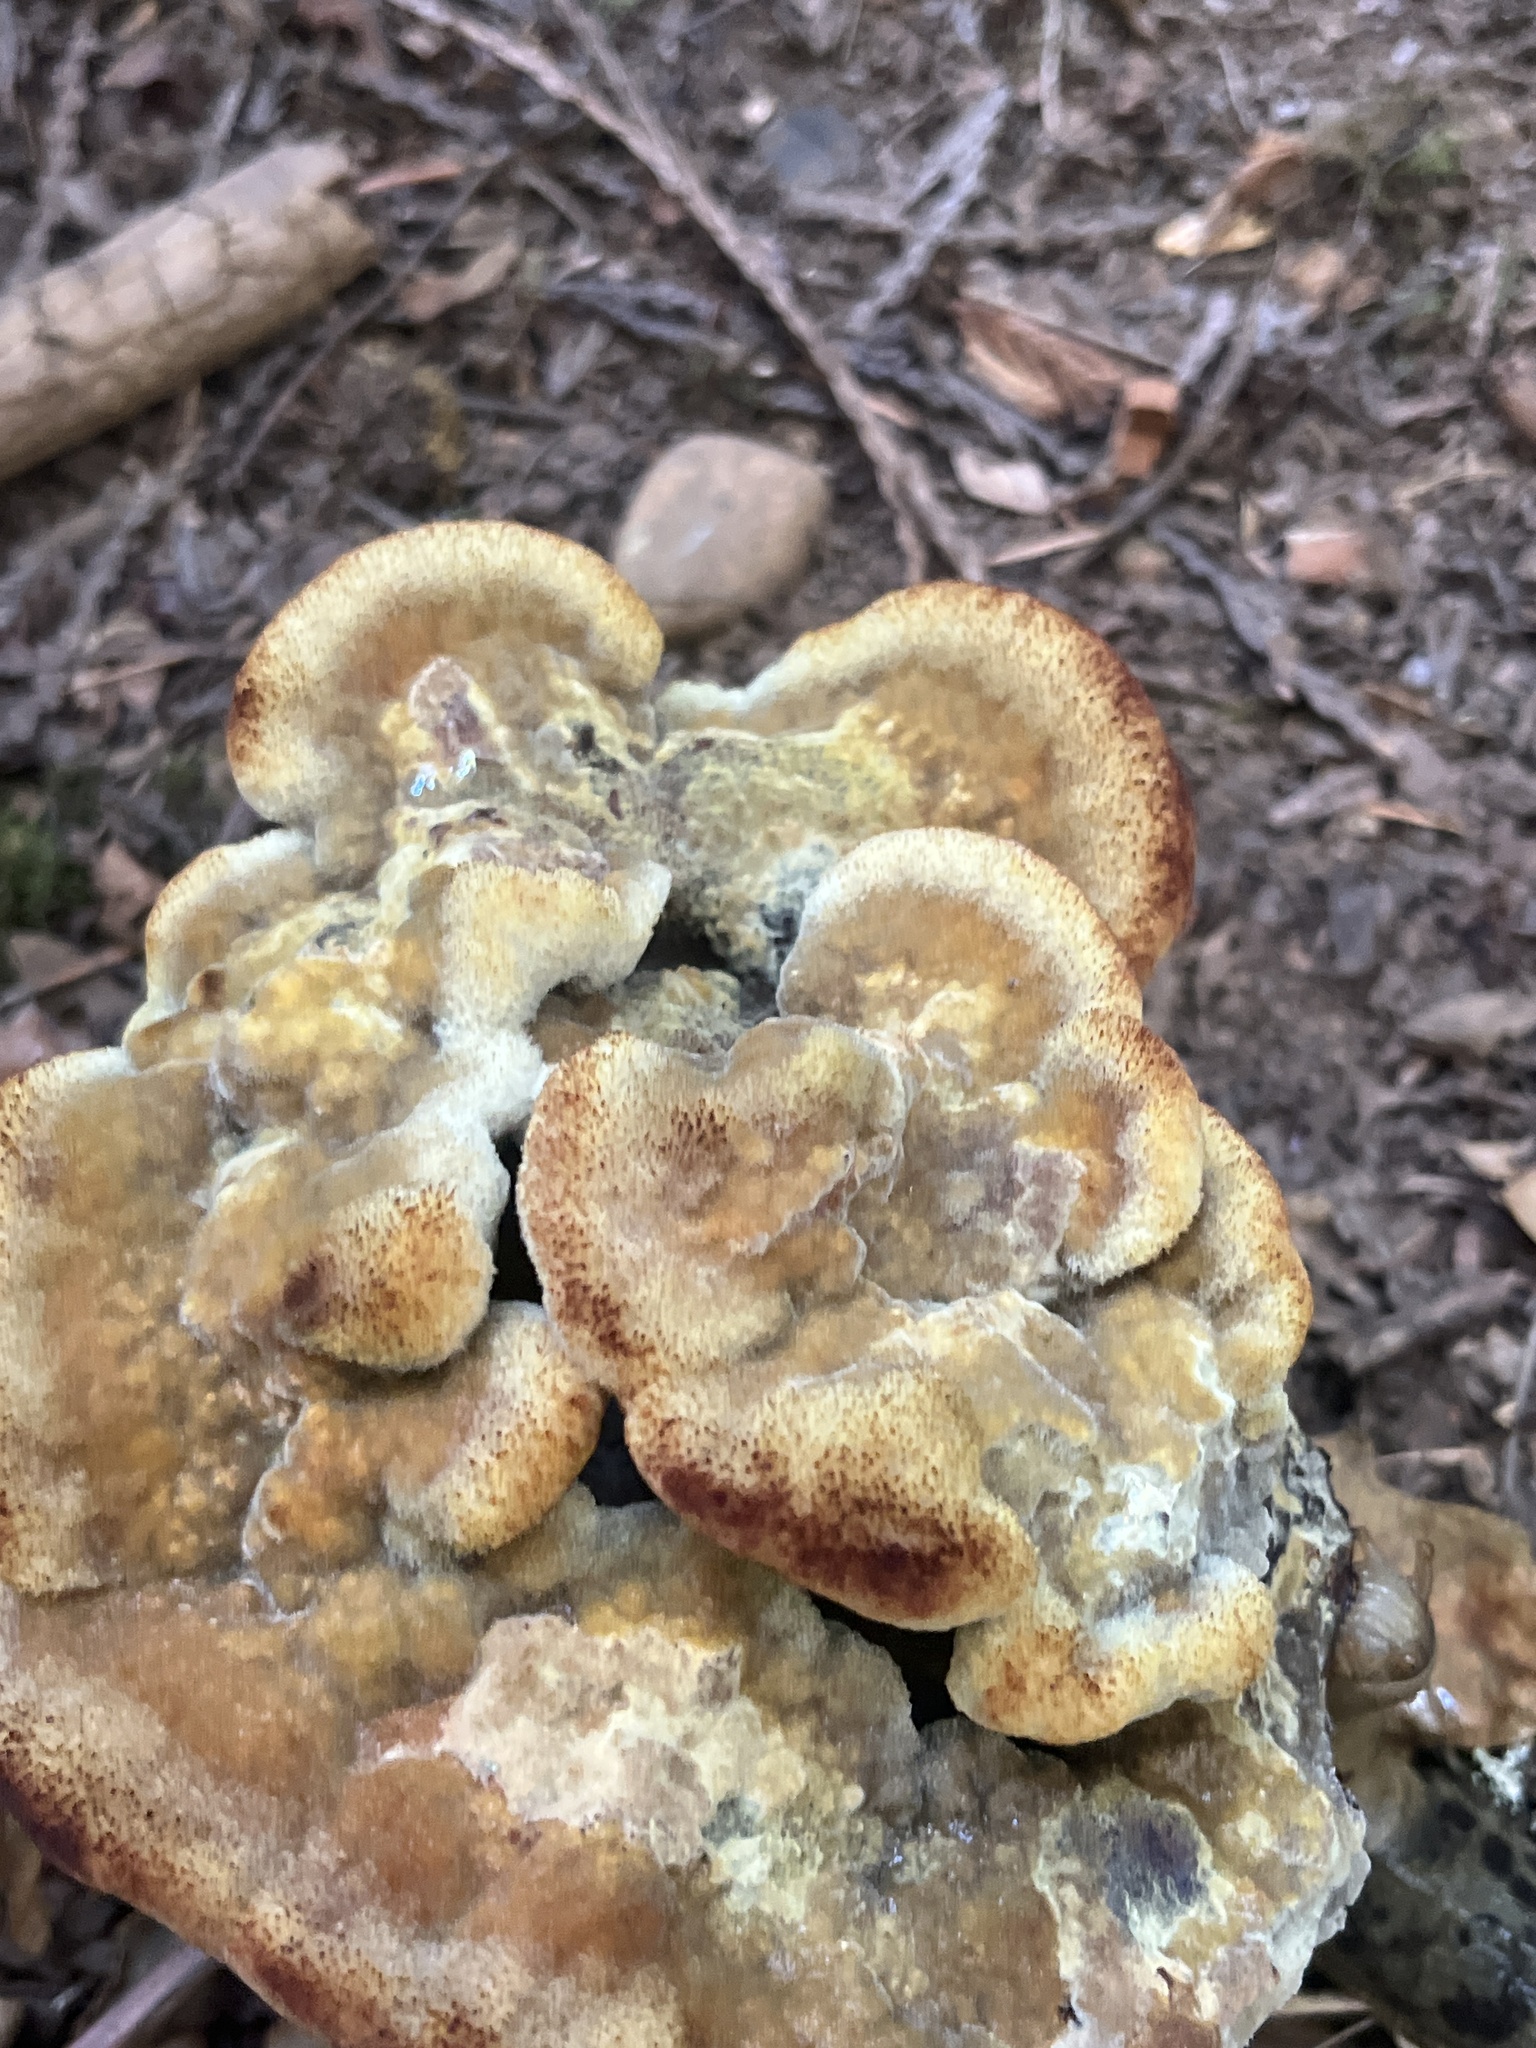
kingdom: Fungi
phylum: Basidiomycota
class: Agaricomycetes
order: Polyporales
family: Laetiporaceae
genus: Phaeolus
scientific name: Phaeolus schweinitzii
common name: Dyer's mazegill
